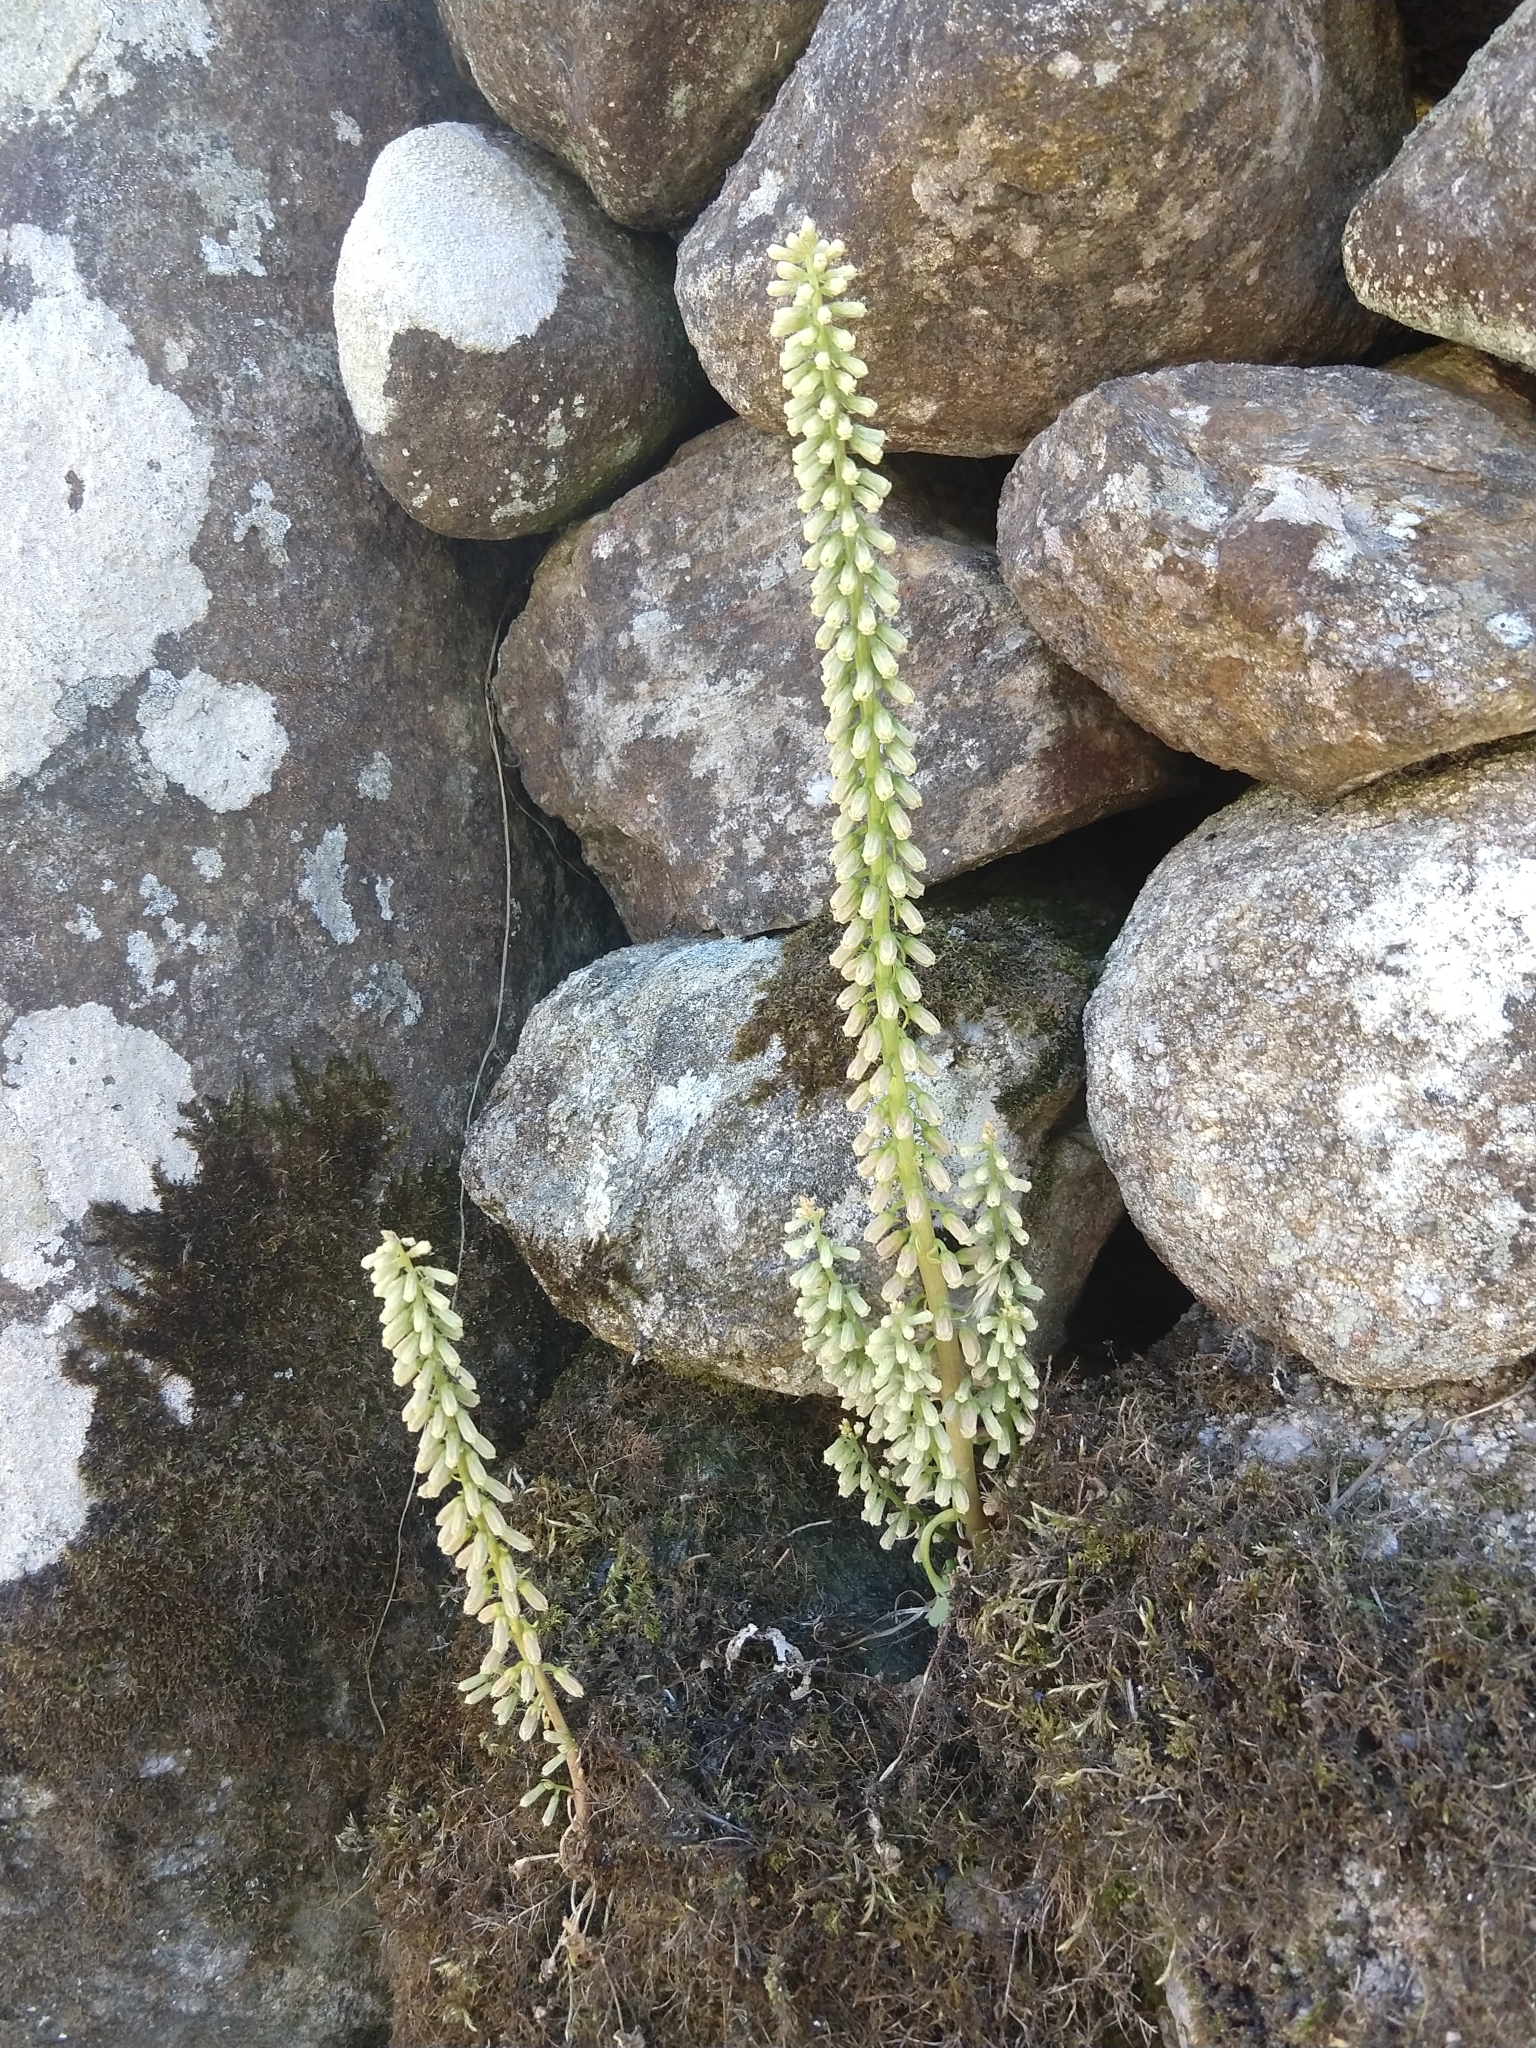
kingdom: Plantae
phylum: Tracheophyta
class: Magnoliopsida
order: Saxifragales
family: Crassulaceae
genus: Umbilicus
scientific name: Umbilicus rupestris
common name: Navelwort
